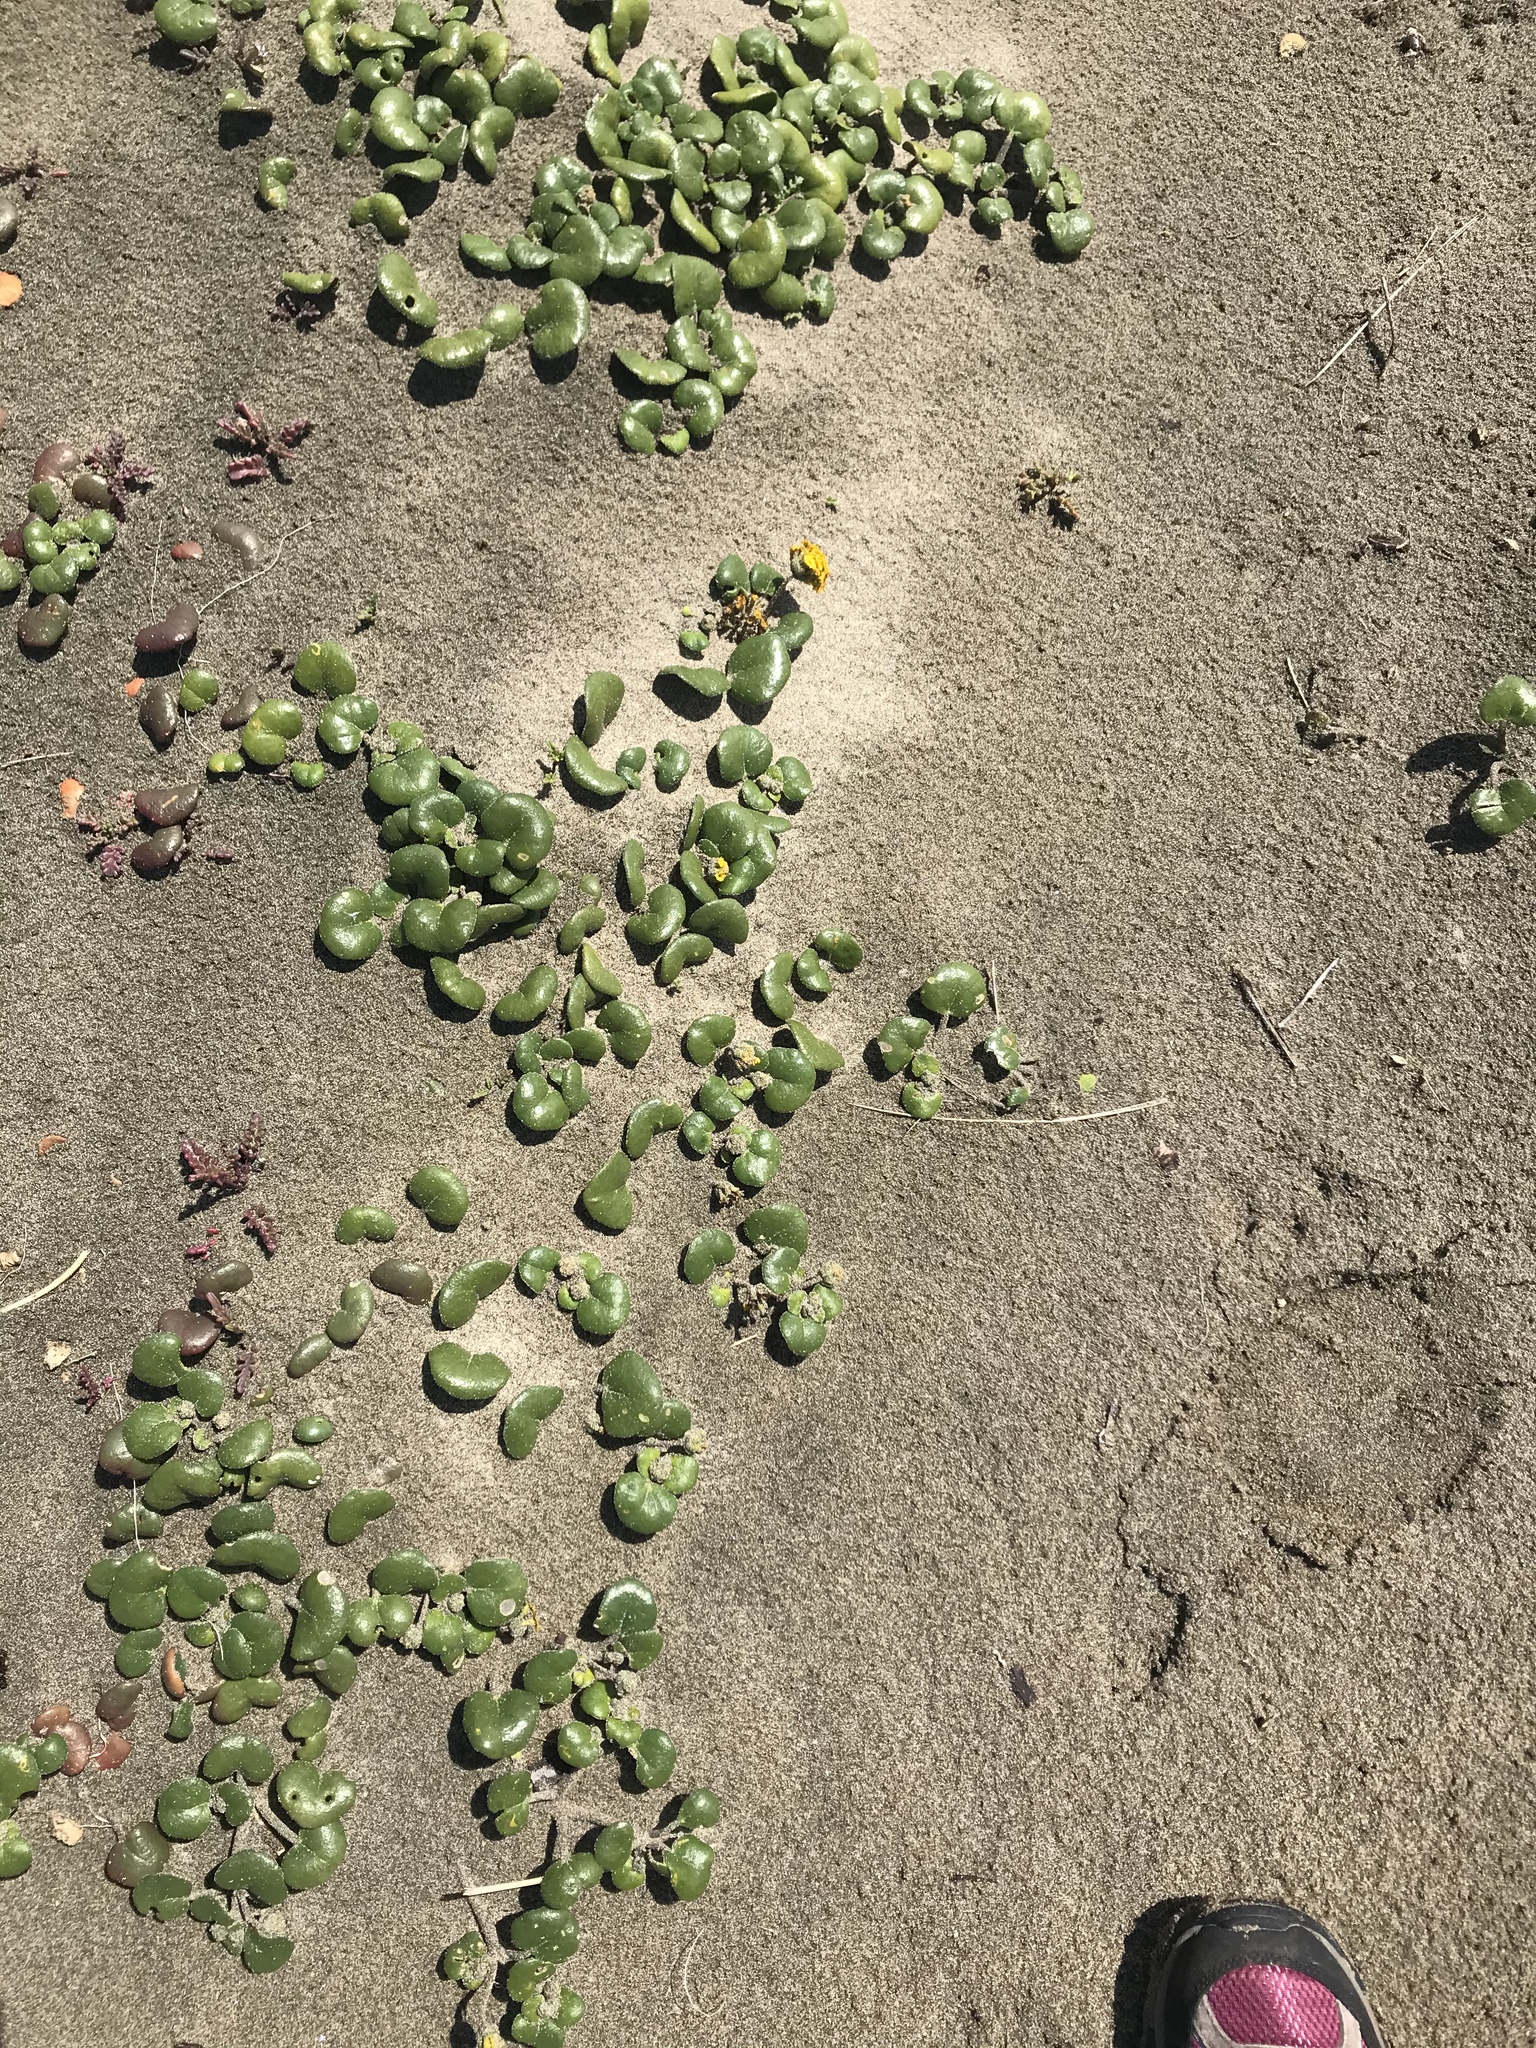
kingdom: Plantae
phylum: Tracheophyta
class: Magnoliopsida
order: Caryophyllales
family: Nyctaginaceae
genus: Abronia
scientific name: Abronia latifolia
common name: Yellow sand-verbena
